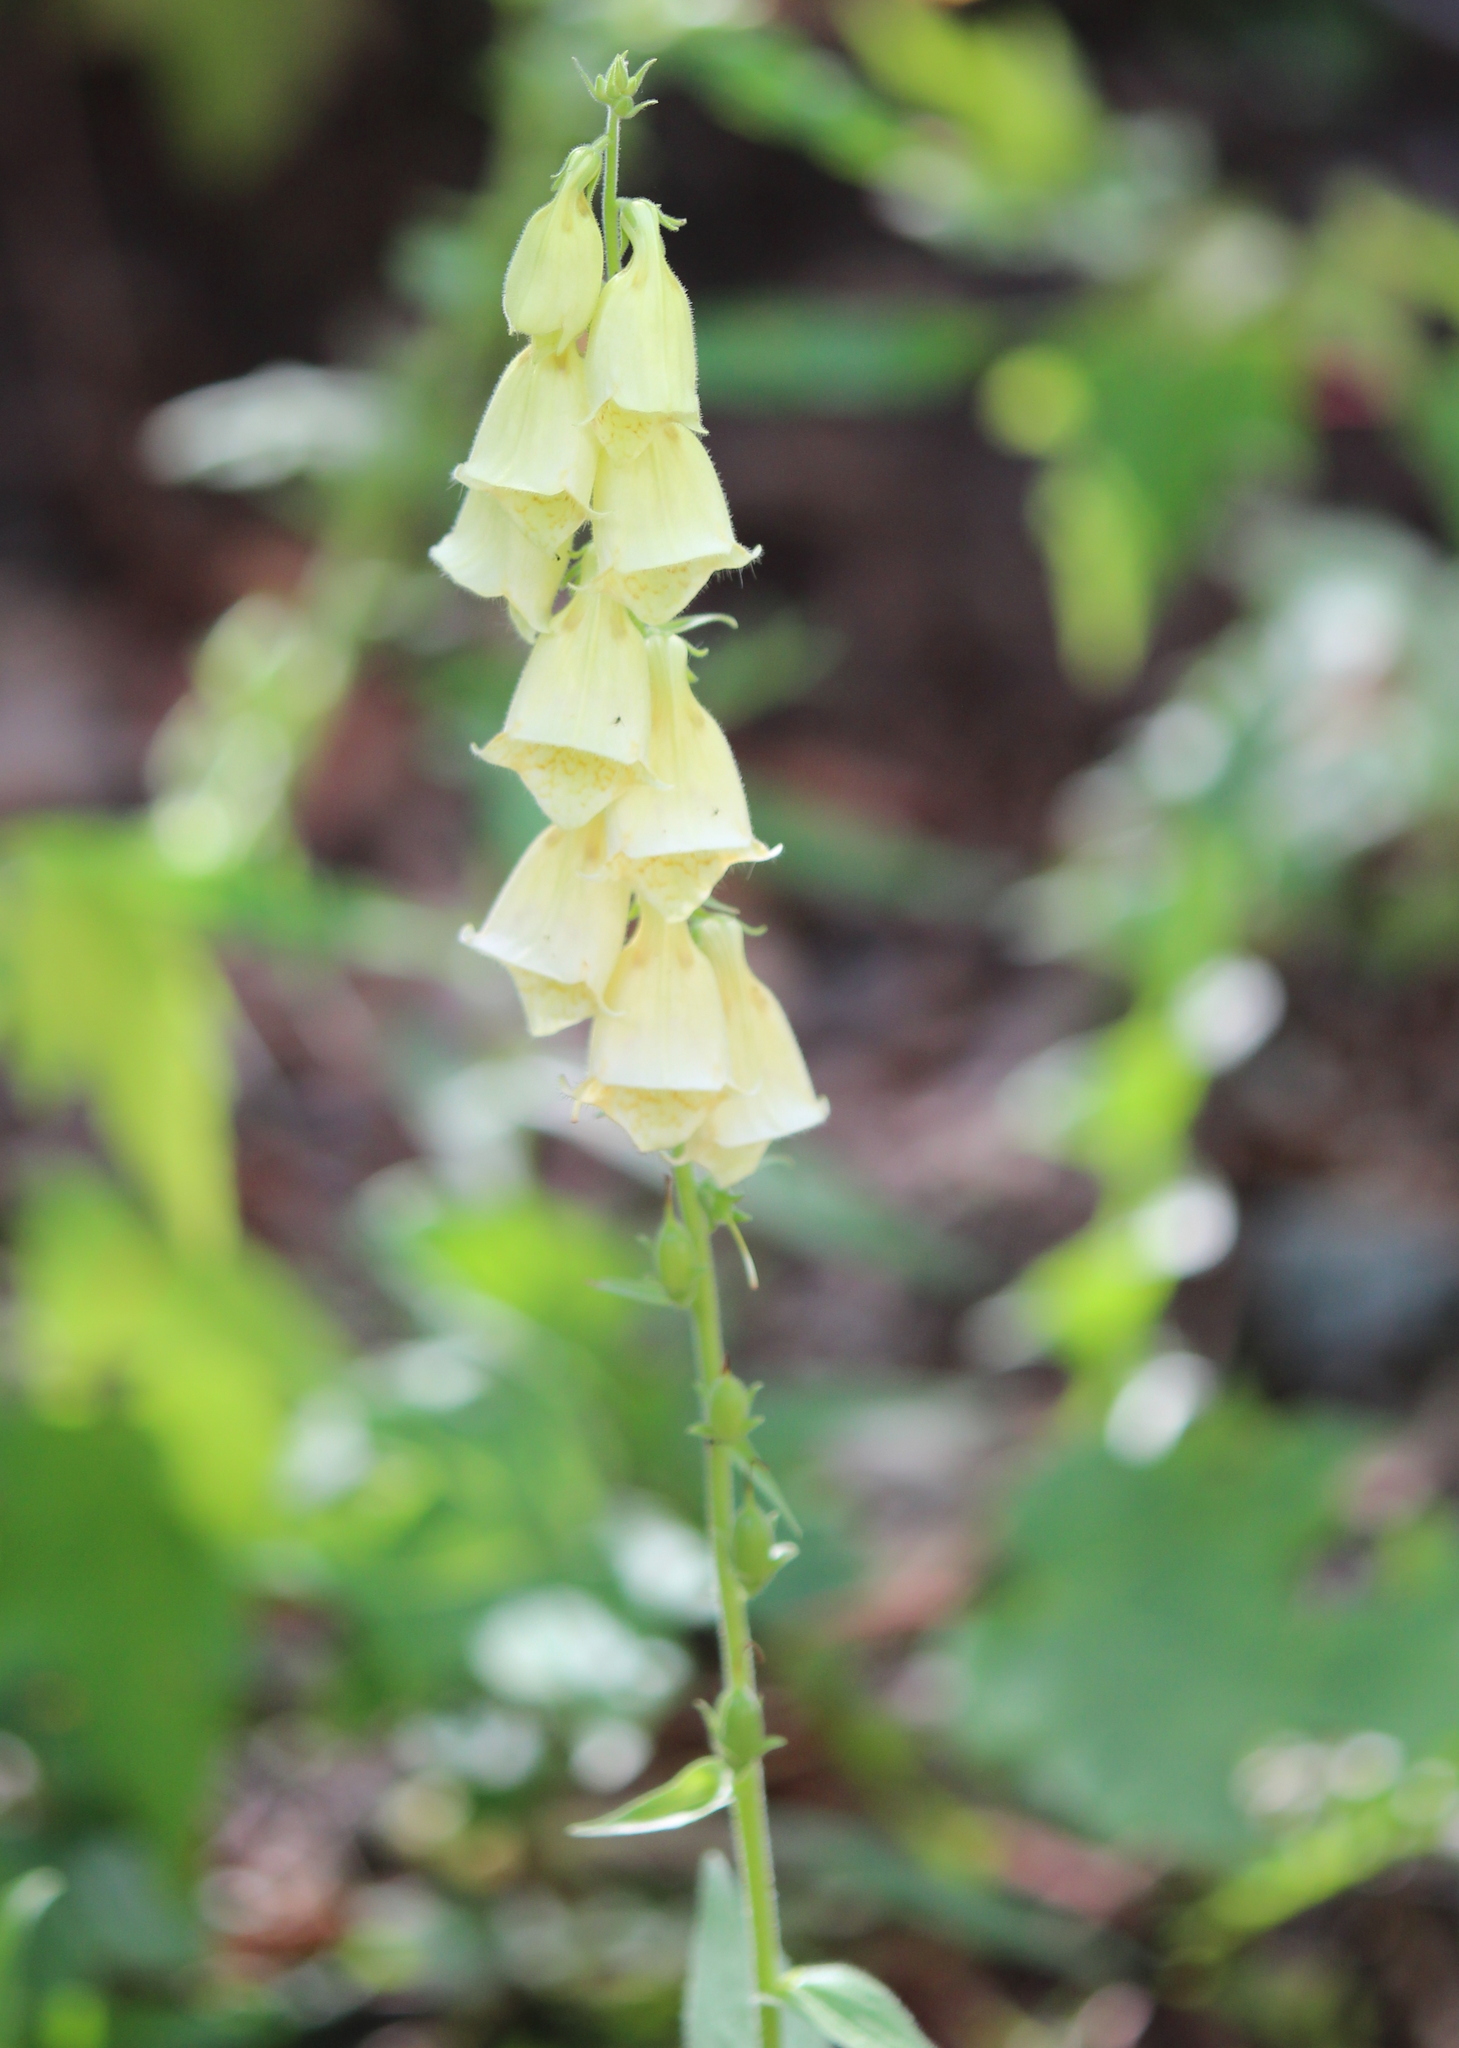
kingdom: Plantae
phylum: Tracheophyta
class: Magnoliopsida
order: Lamiales
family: Plantaginaceae
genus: Digitalis
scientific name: Digitalis grandiflora
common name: Yellow foxglove
